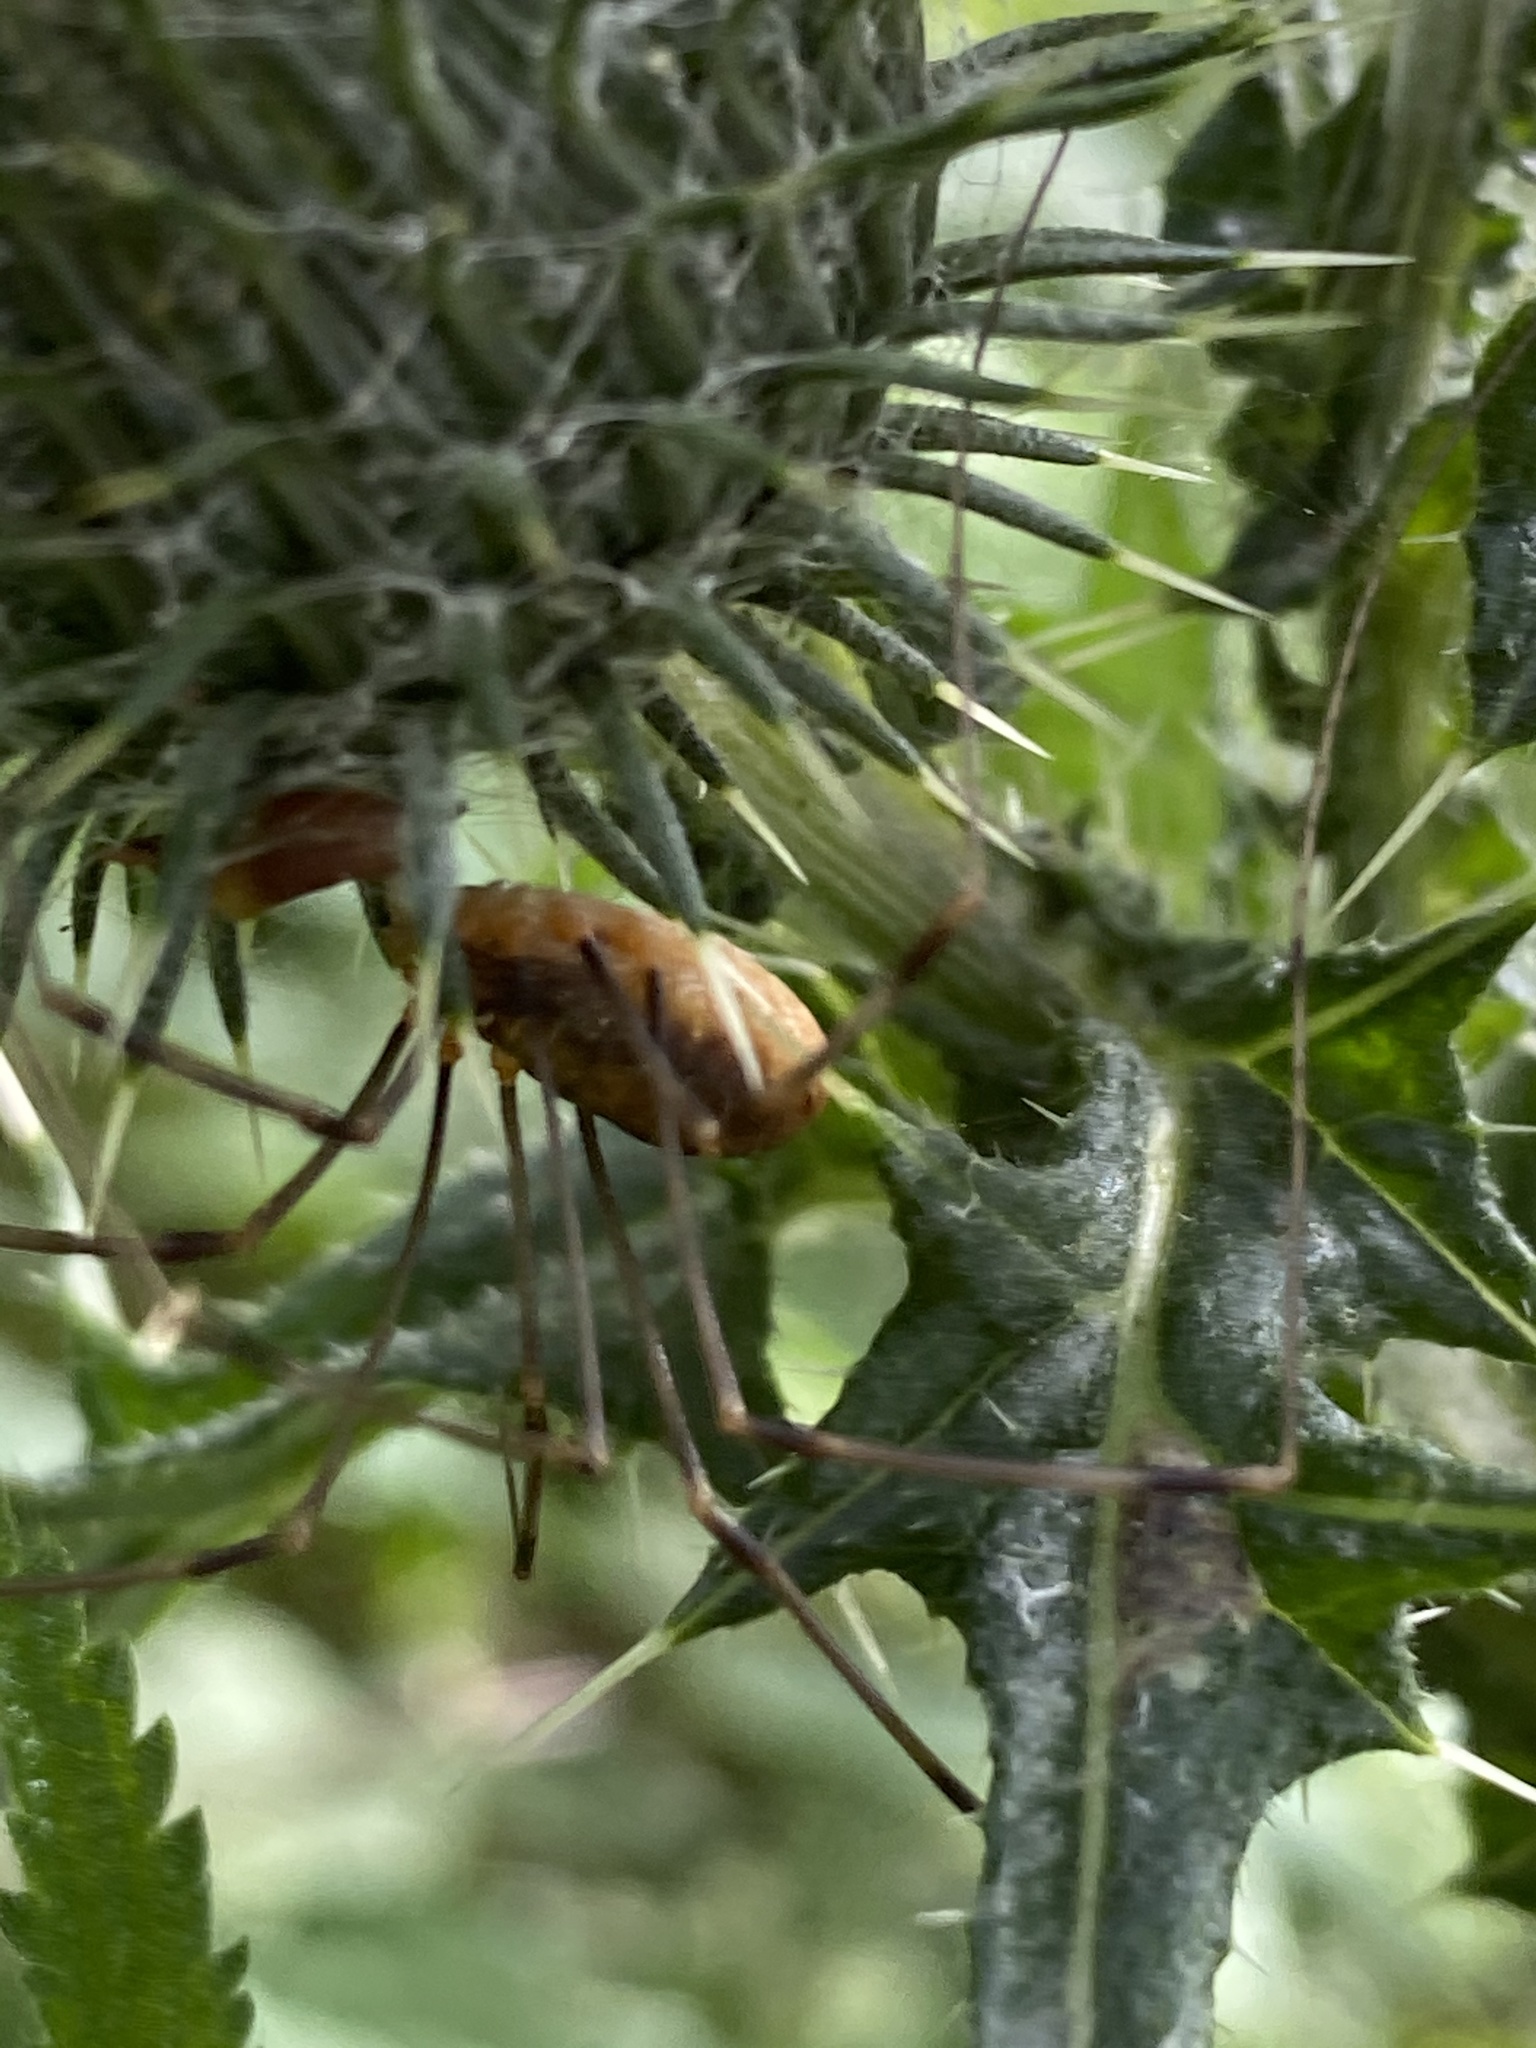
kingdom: Animalia
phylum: Arthropoda
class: Arachnida
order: Opiliones
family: Phalangiidae
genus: Opilio
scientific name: Opilio canestrinii
